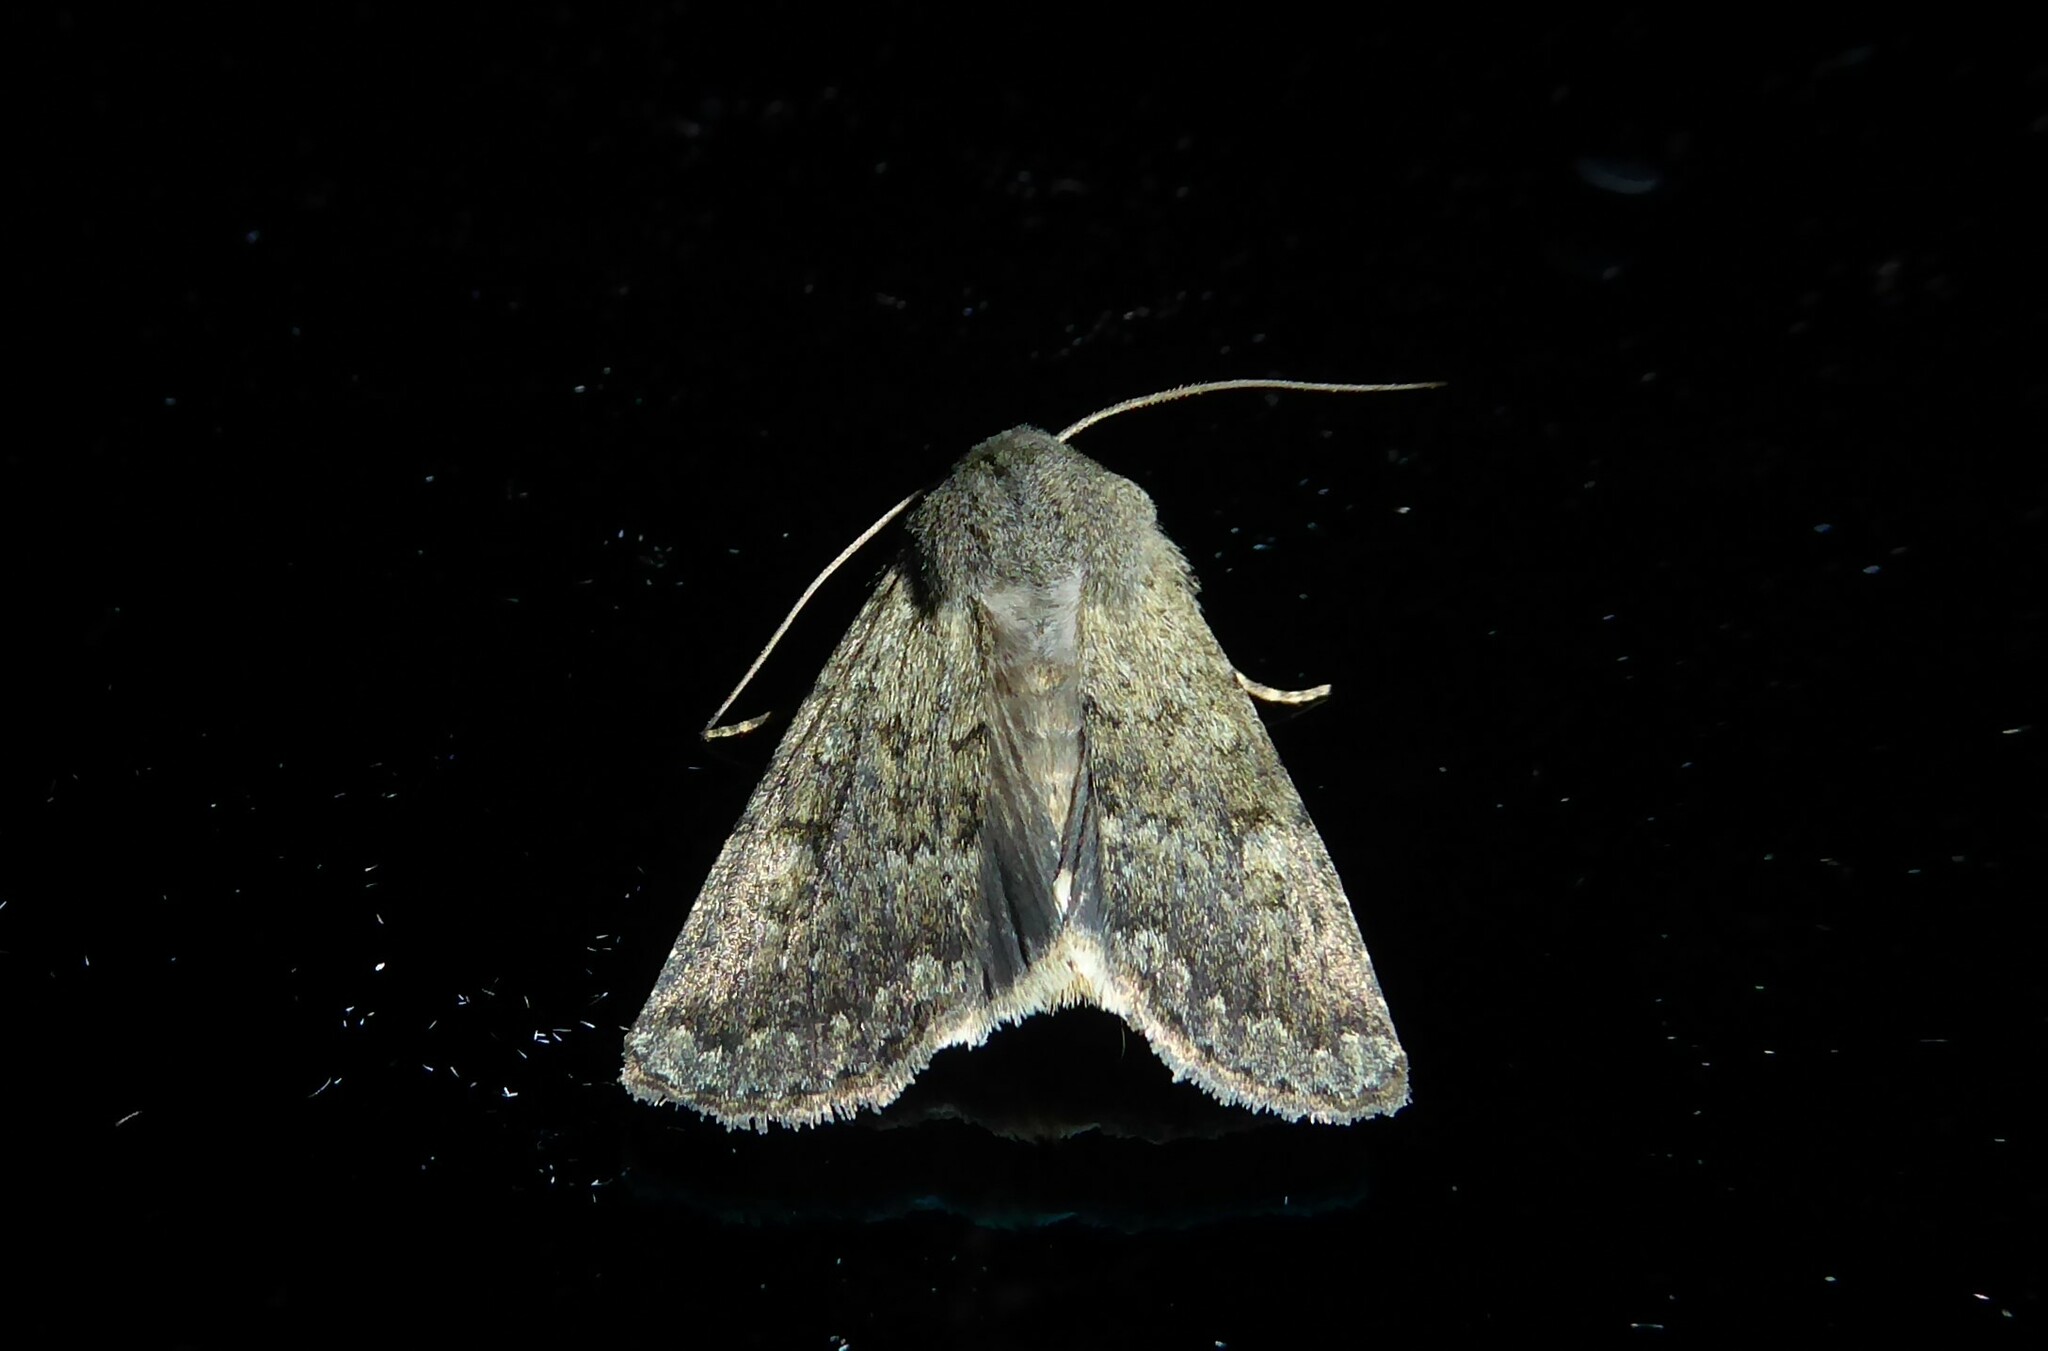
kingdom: Animalia
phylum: Arthropoda
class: Insecta
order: Lepidoptera
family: Noctuidae
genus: Ichneutica
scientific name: Ichneutica moderata
